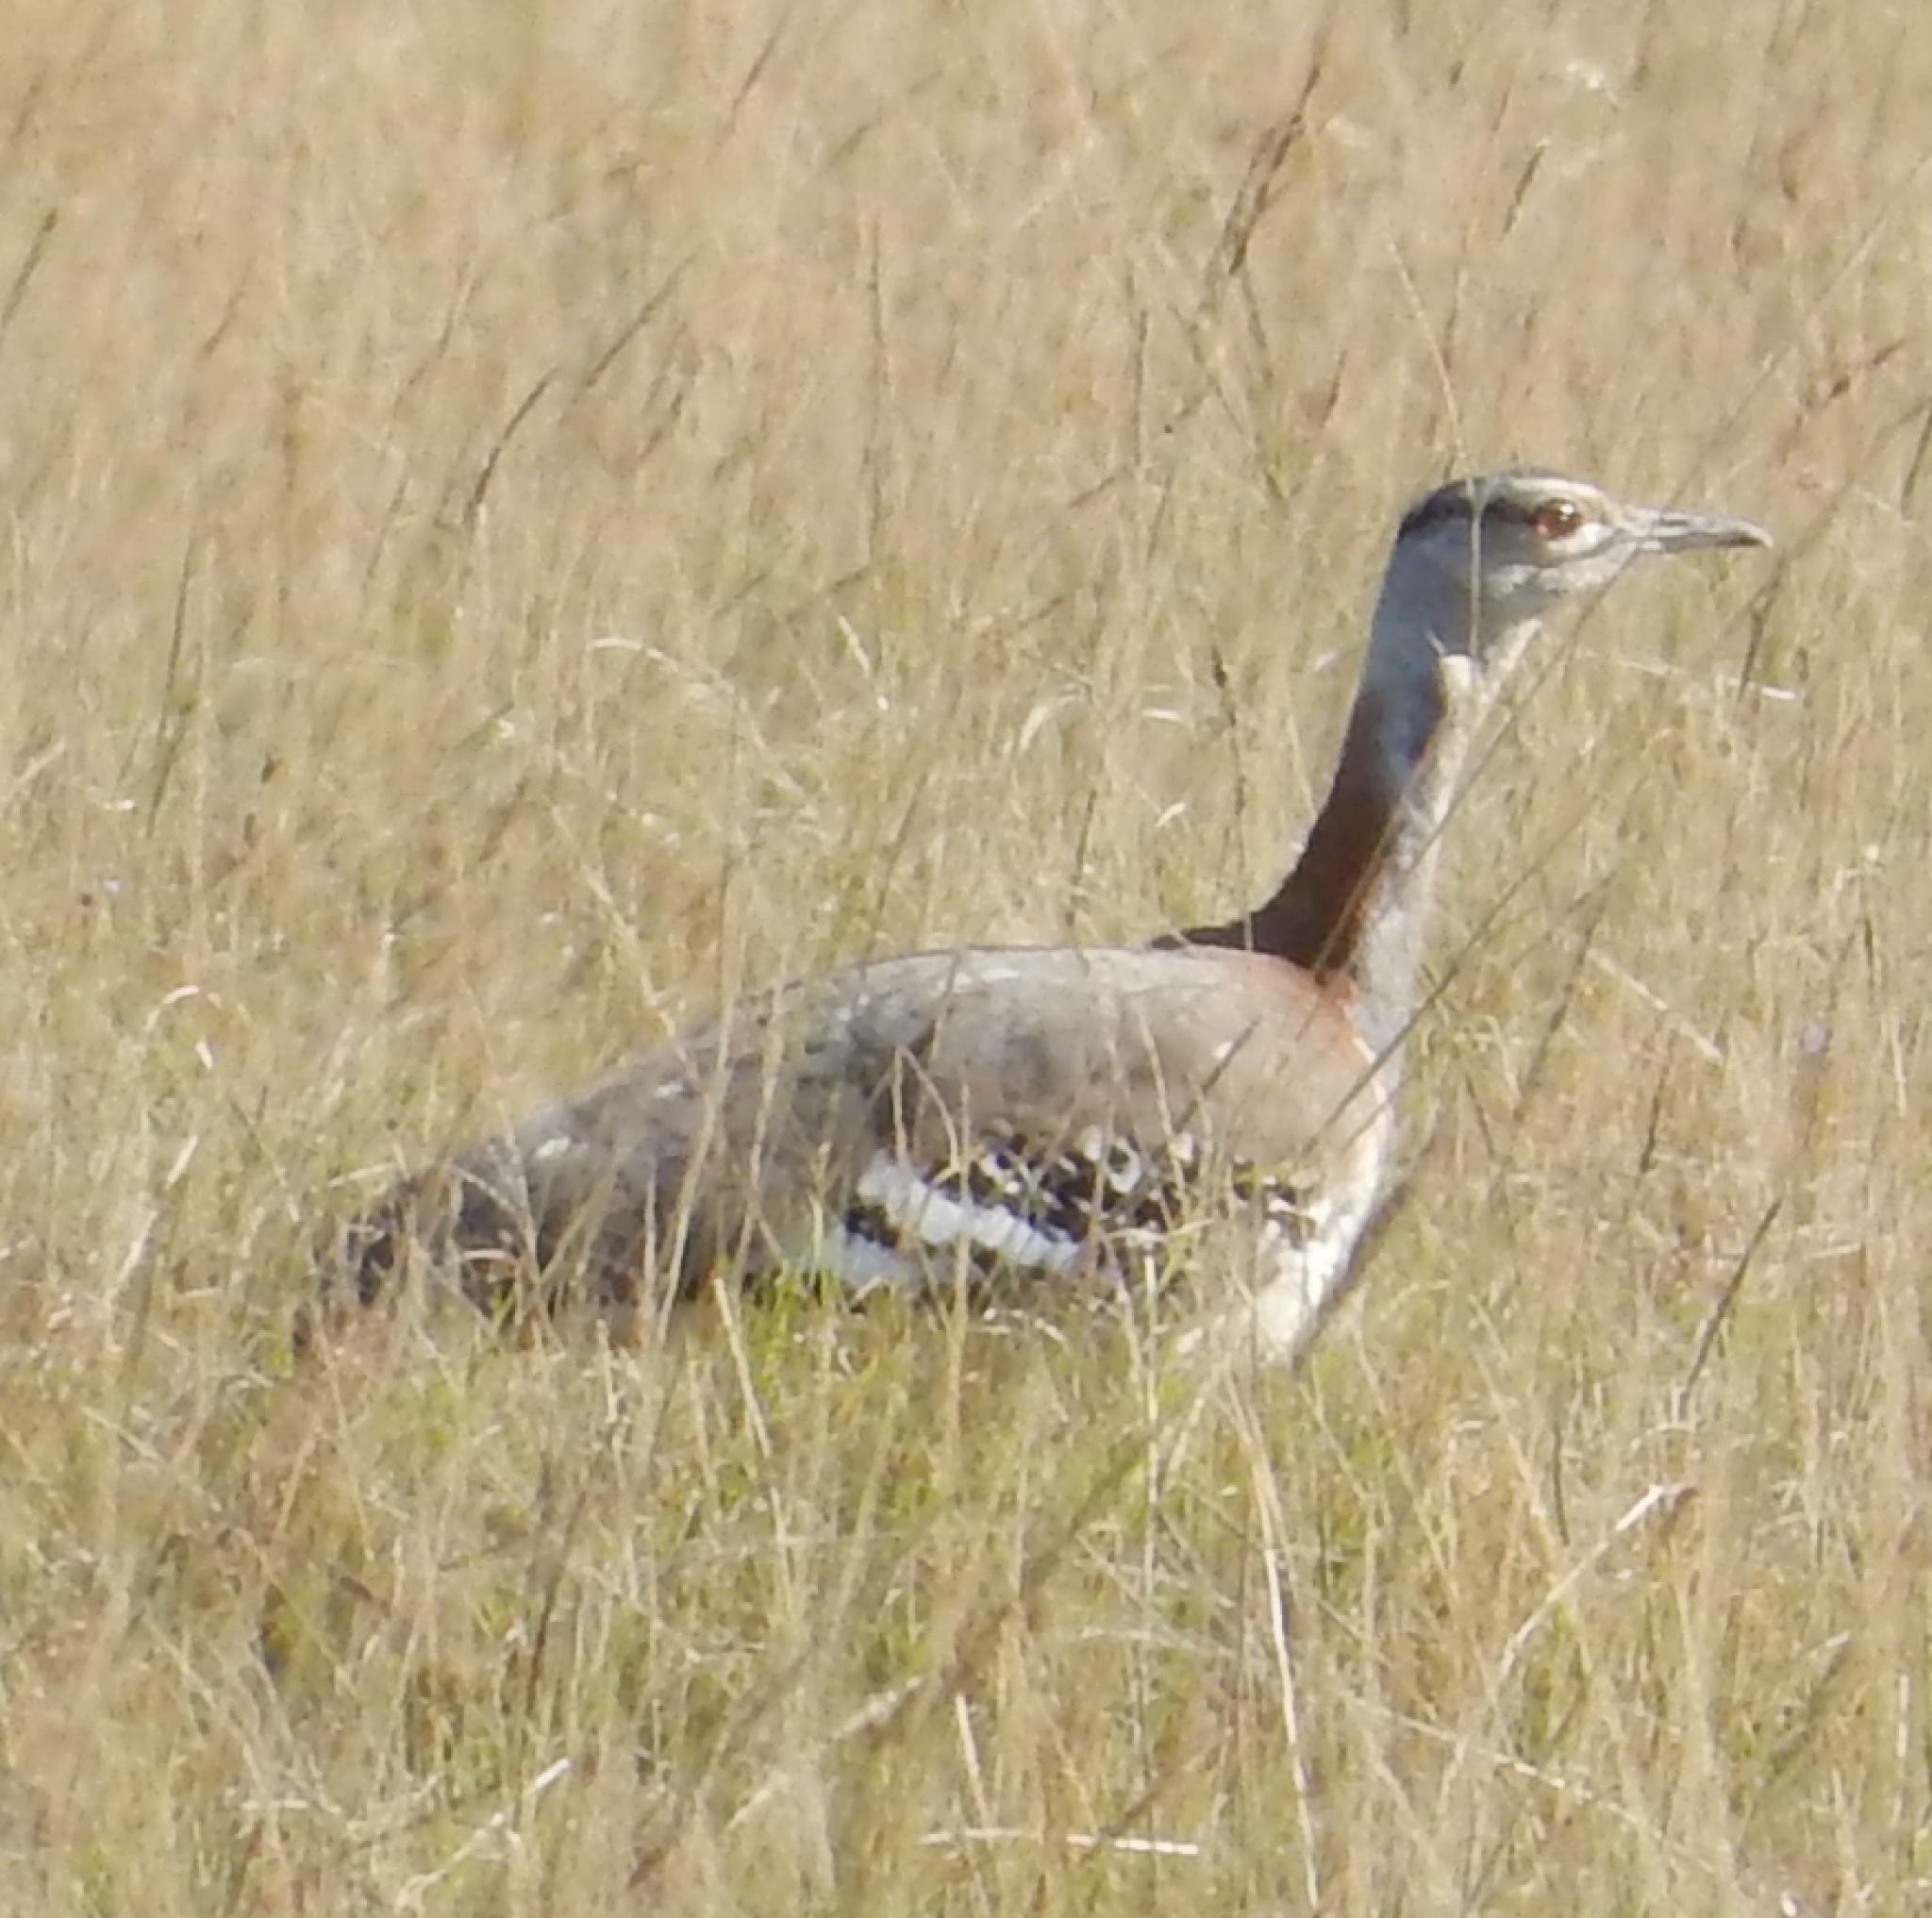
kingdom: Animalia
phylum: Chordata
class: Aves
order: Otidiformes
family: Otididae
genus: Neotis
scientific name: Neotis denhami
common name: Denham's bustard
